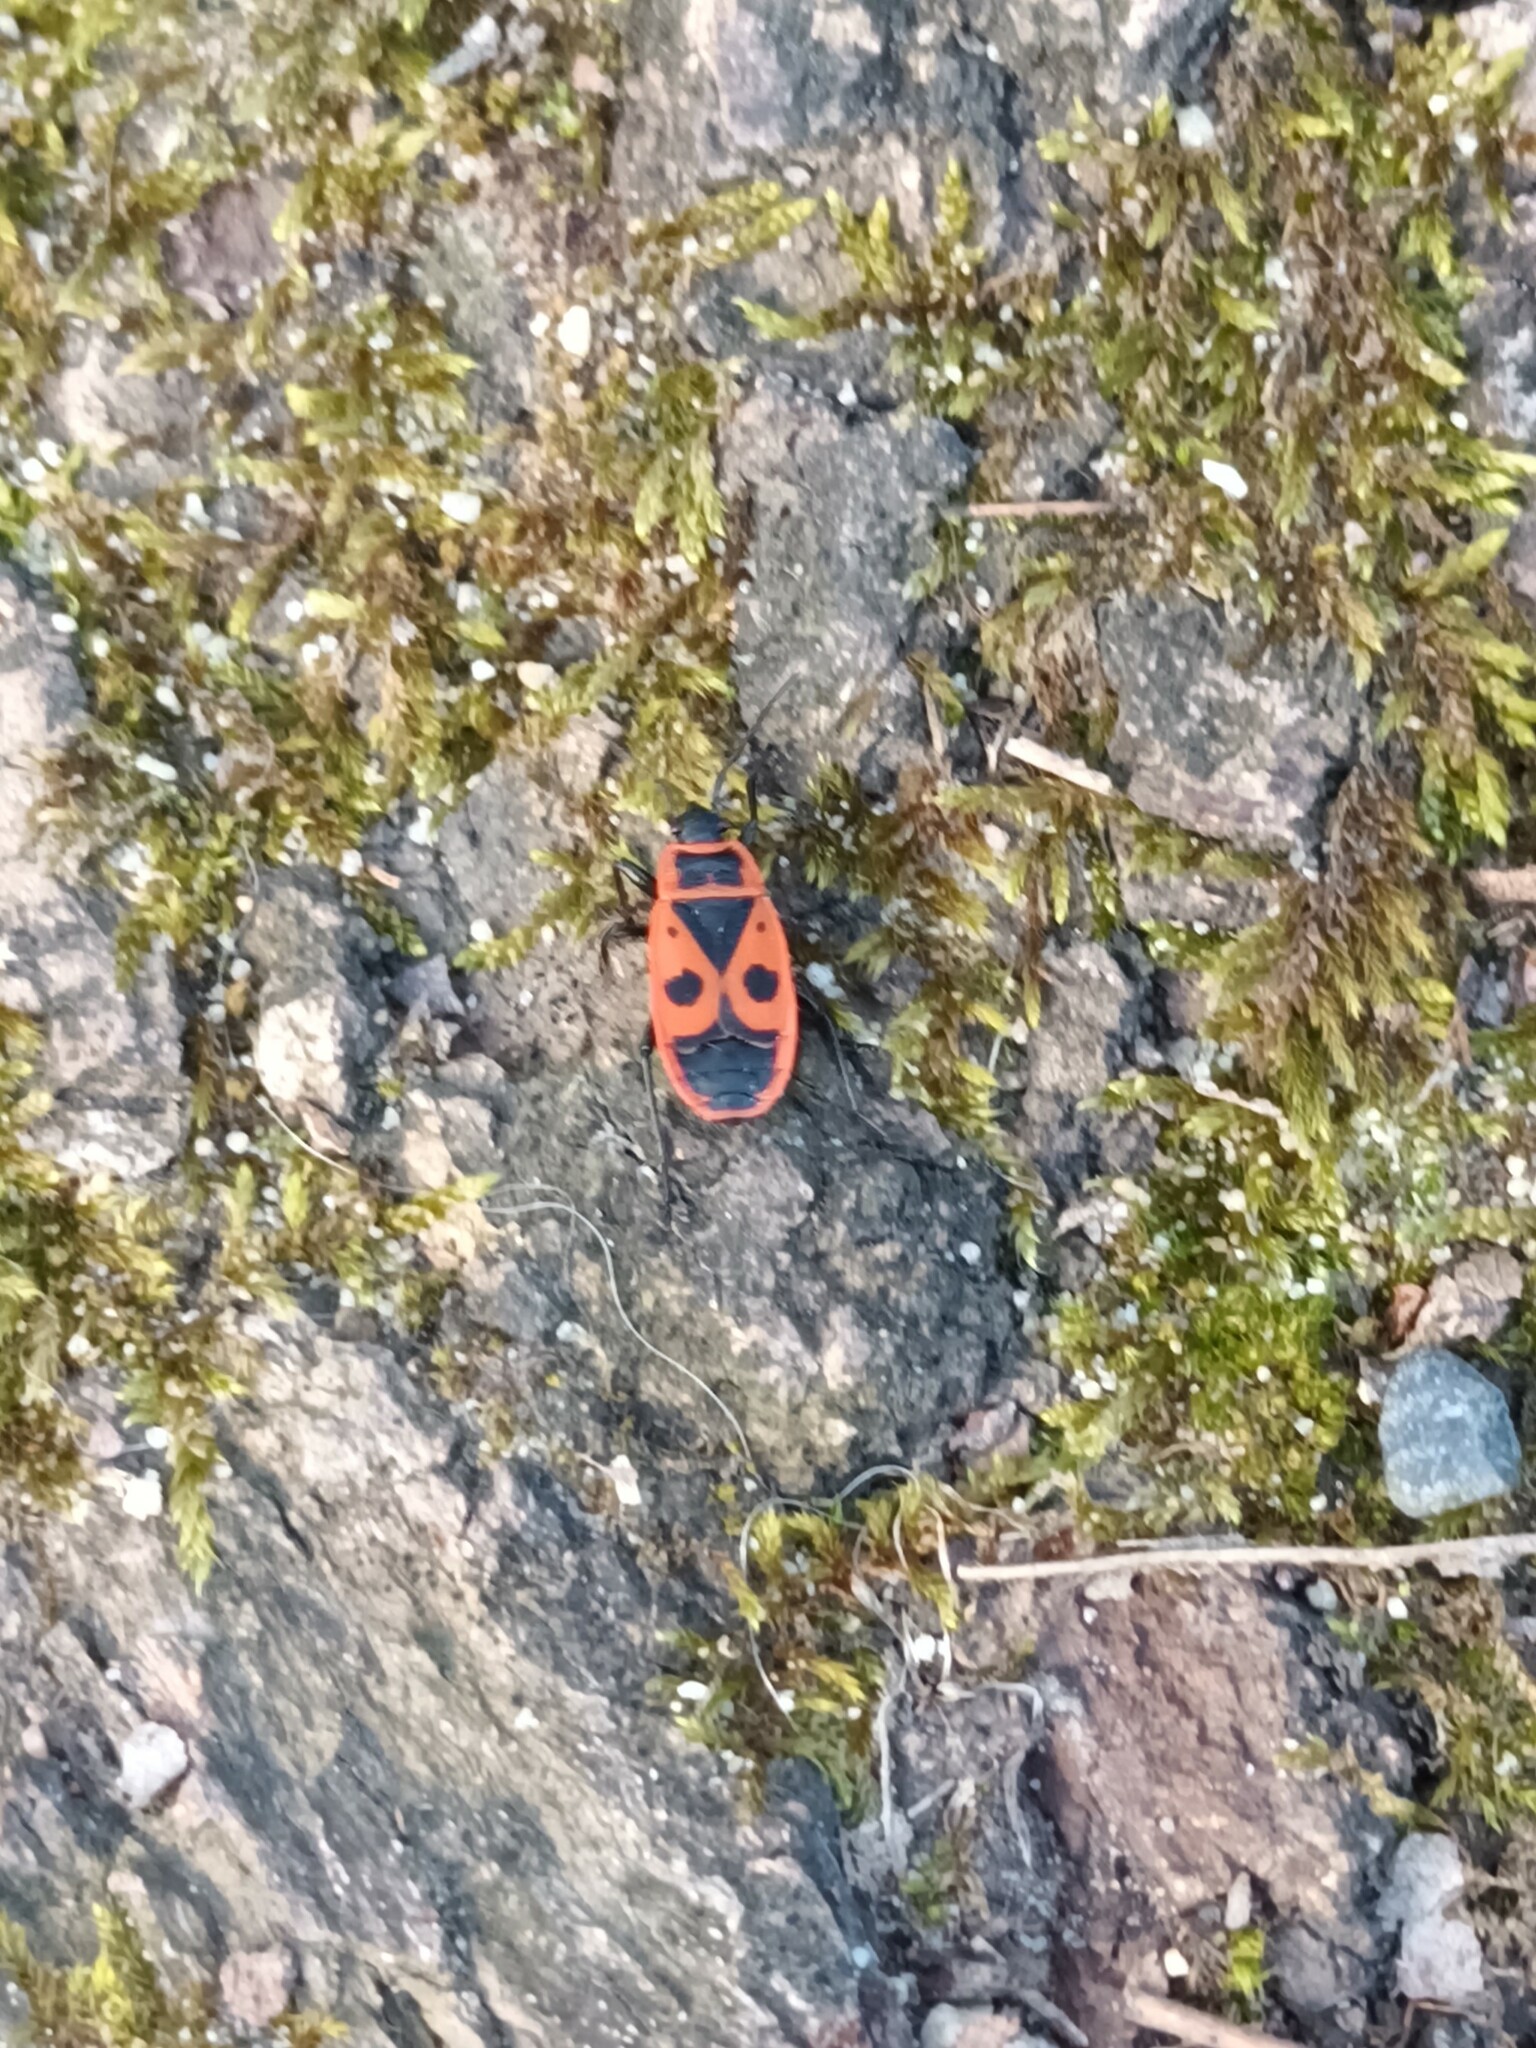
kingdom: Animalia
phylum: Arthropoda
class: Insecta
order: Hemiptera
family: Pyrrhocoridae
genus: Pyrrhocoris
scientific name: Pyrrhocoris apterus
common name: Firebug
